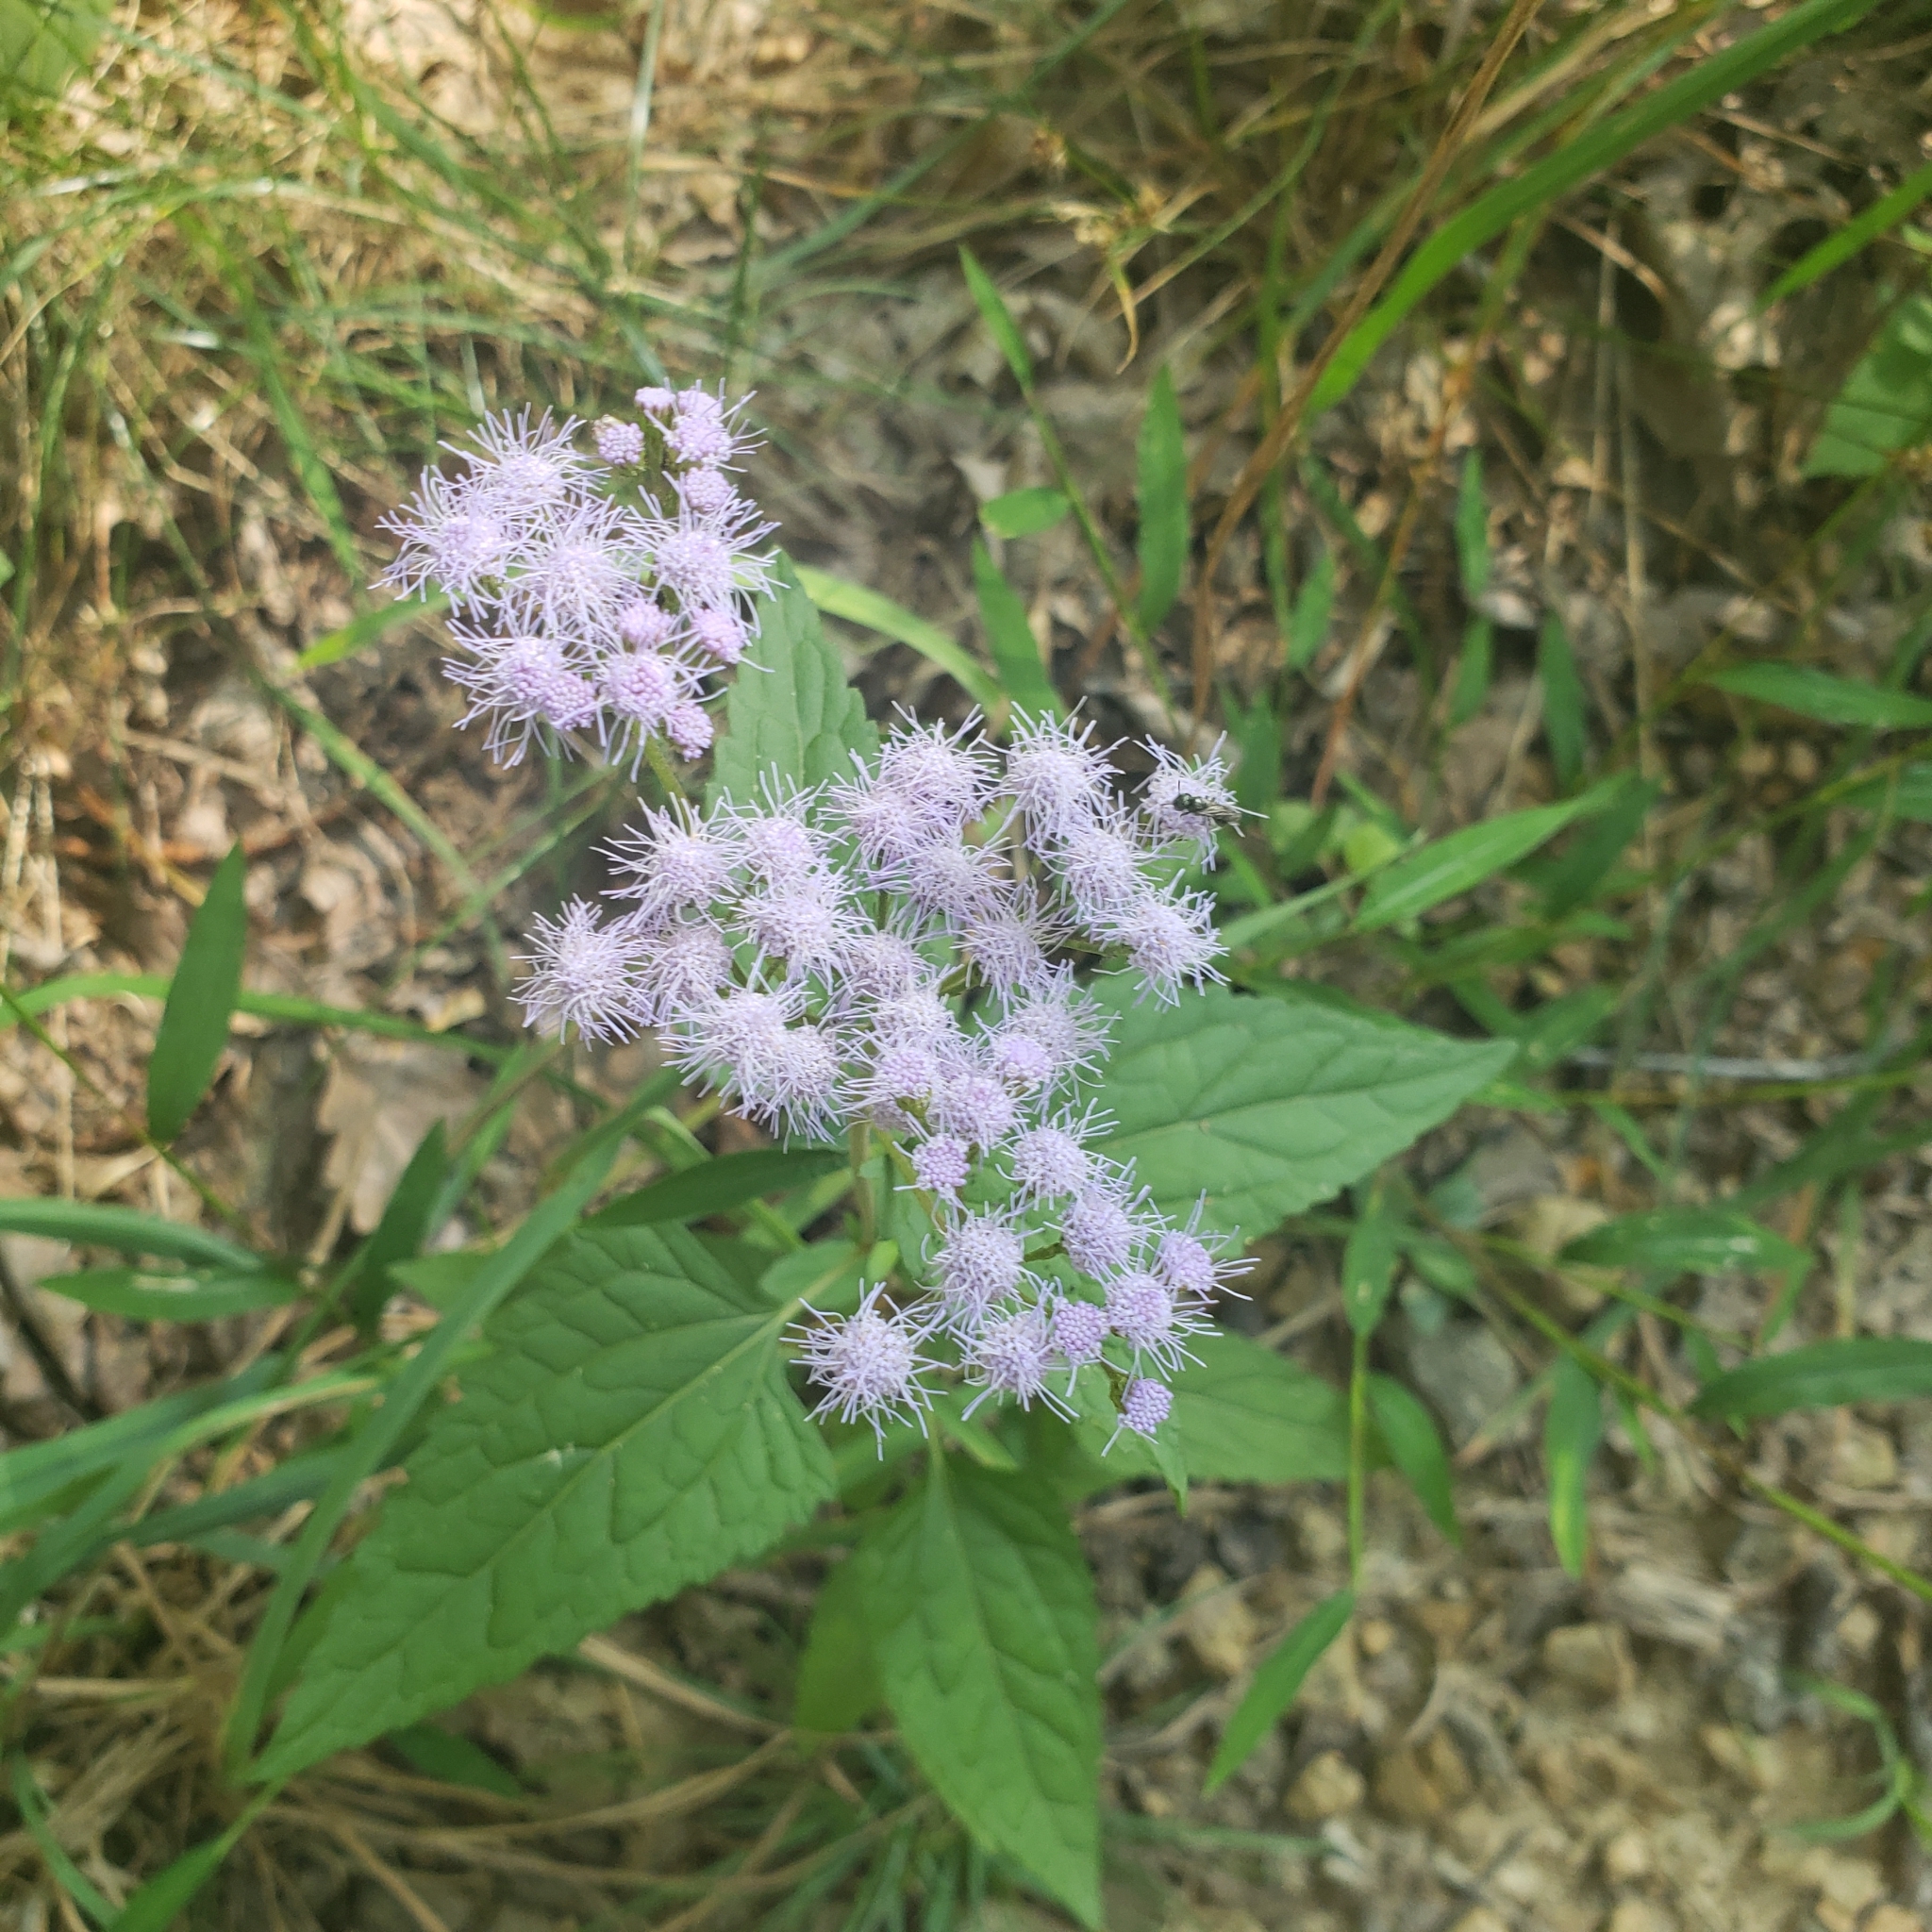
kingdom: Plantae
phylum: Tracheophyta
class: Magnoliopsida
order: Asterales
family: Asteraceae
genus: Conoclinium
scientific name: Conoclinium coelestinum
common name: Blue mistflower
